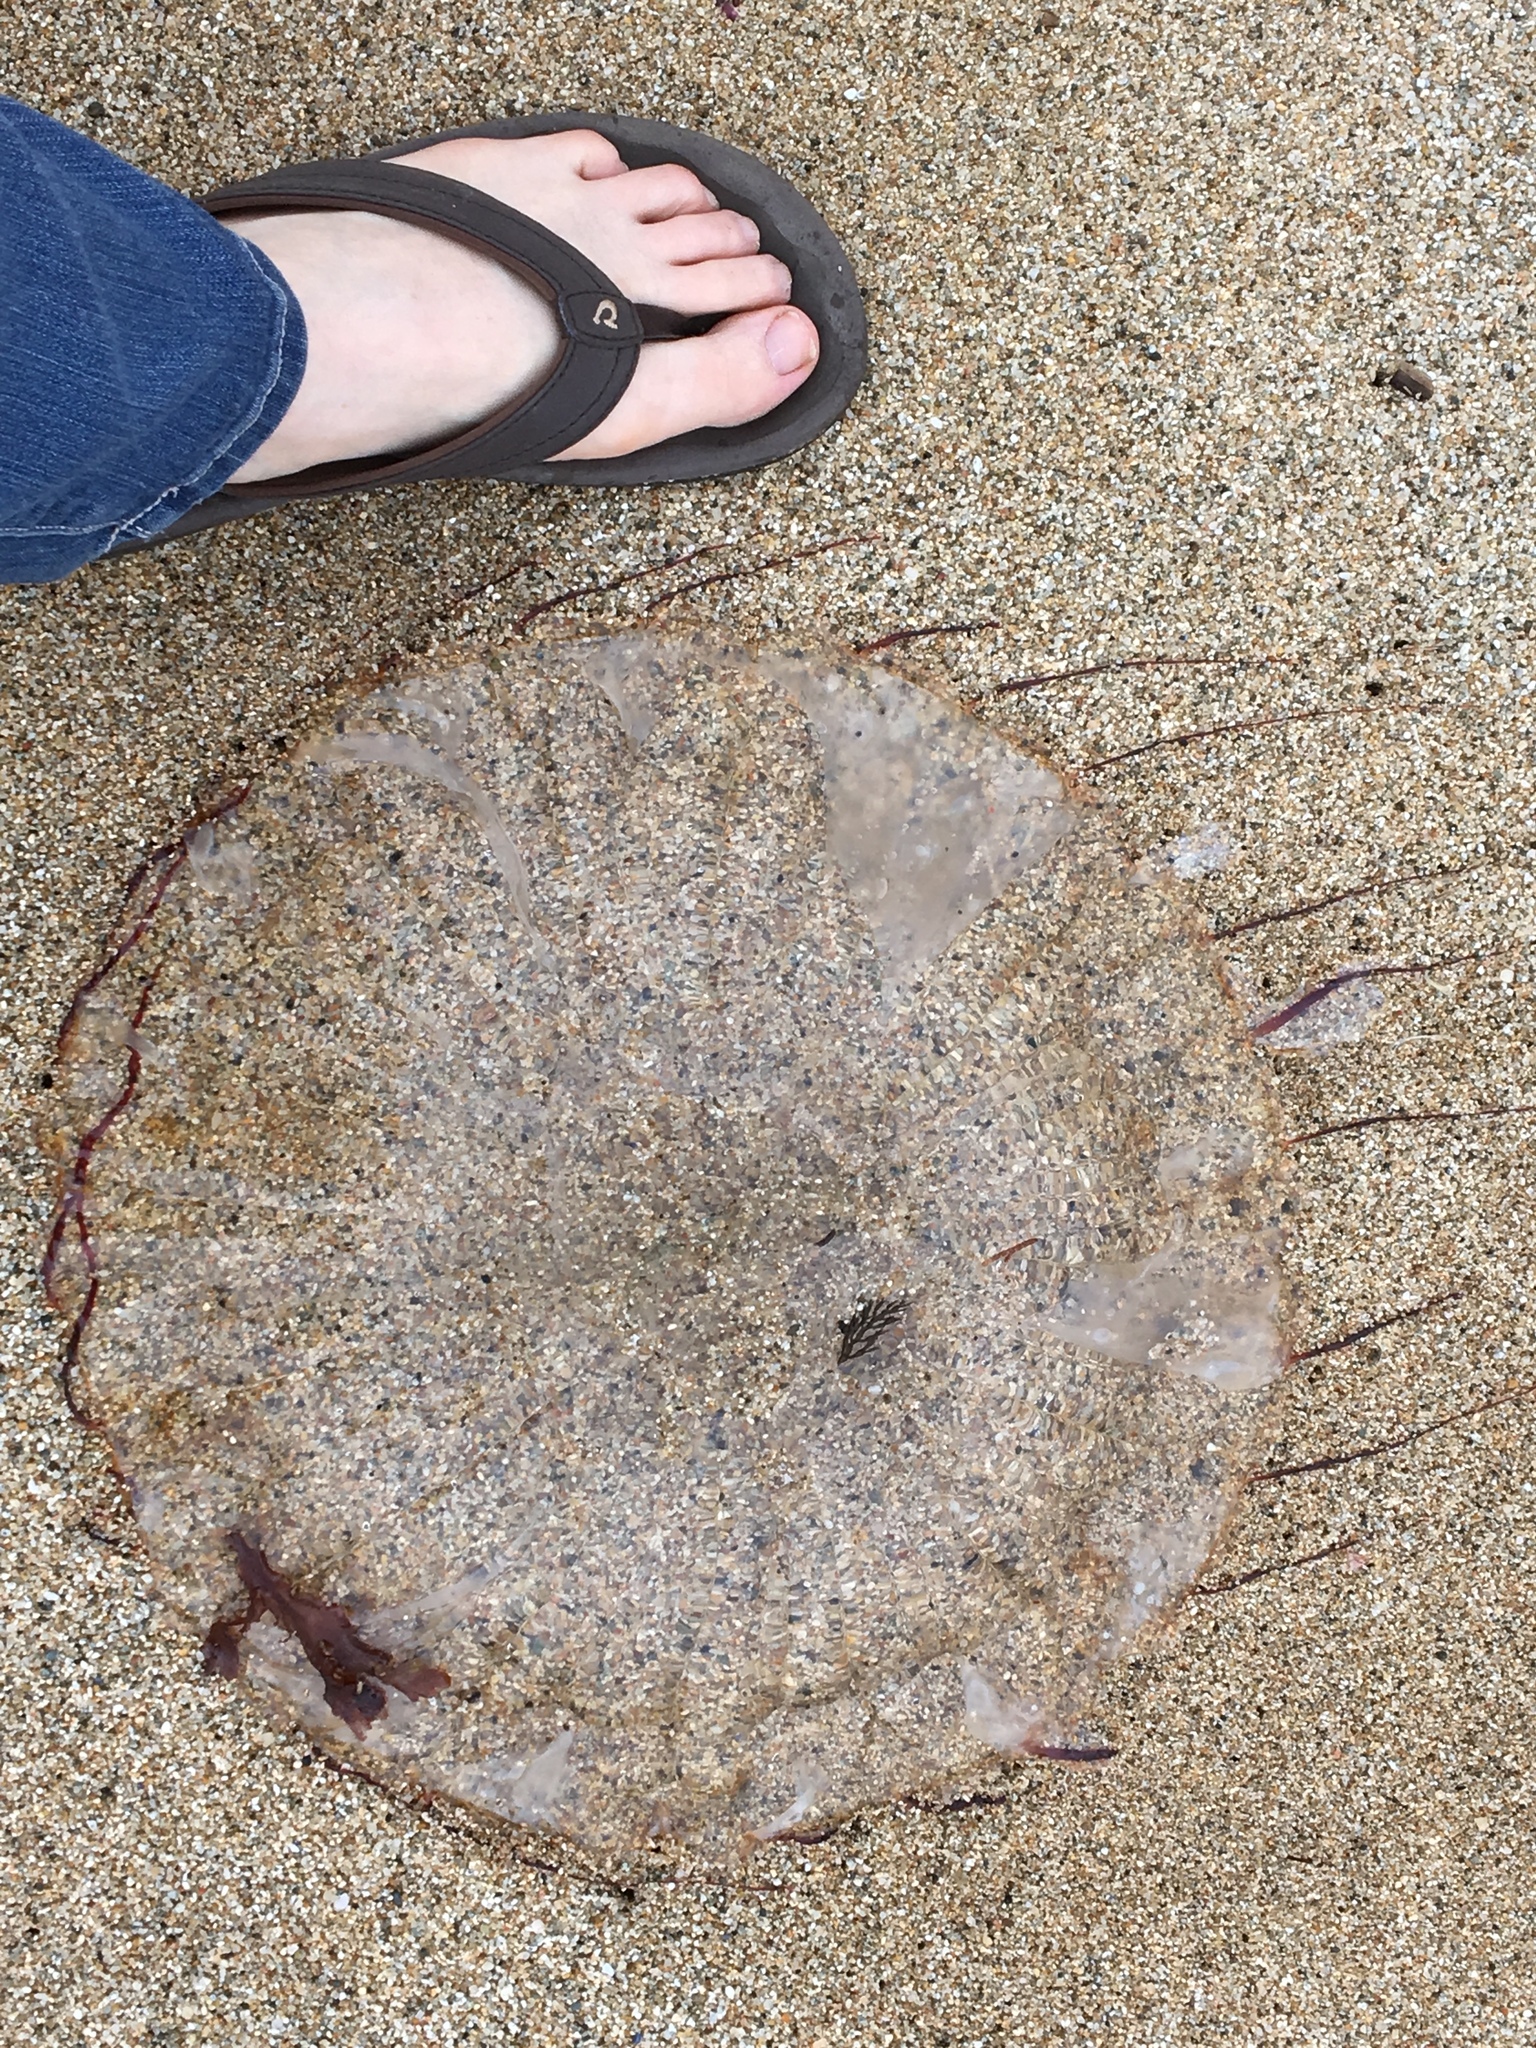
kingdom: Animalia
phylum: Cnidaria
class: Scyphozoa
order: Semaeostomeae
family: Pelagiidae
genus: Chrysaora
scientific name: Chrysaora fuscescens
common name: Sea nettle
